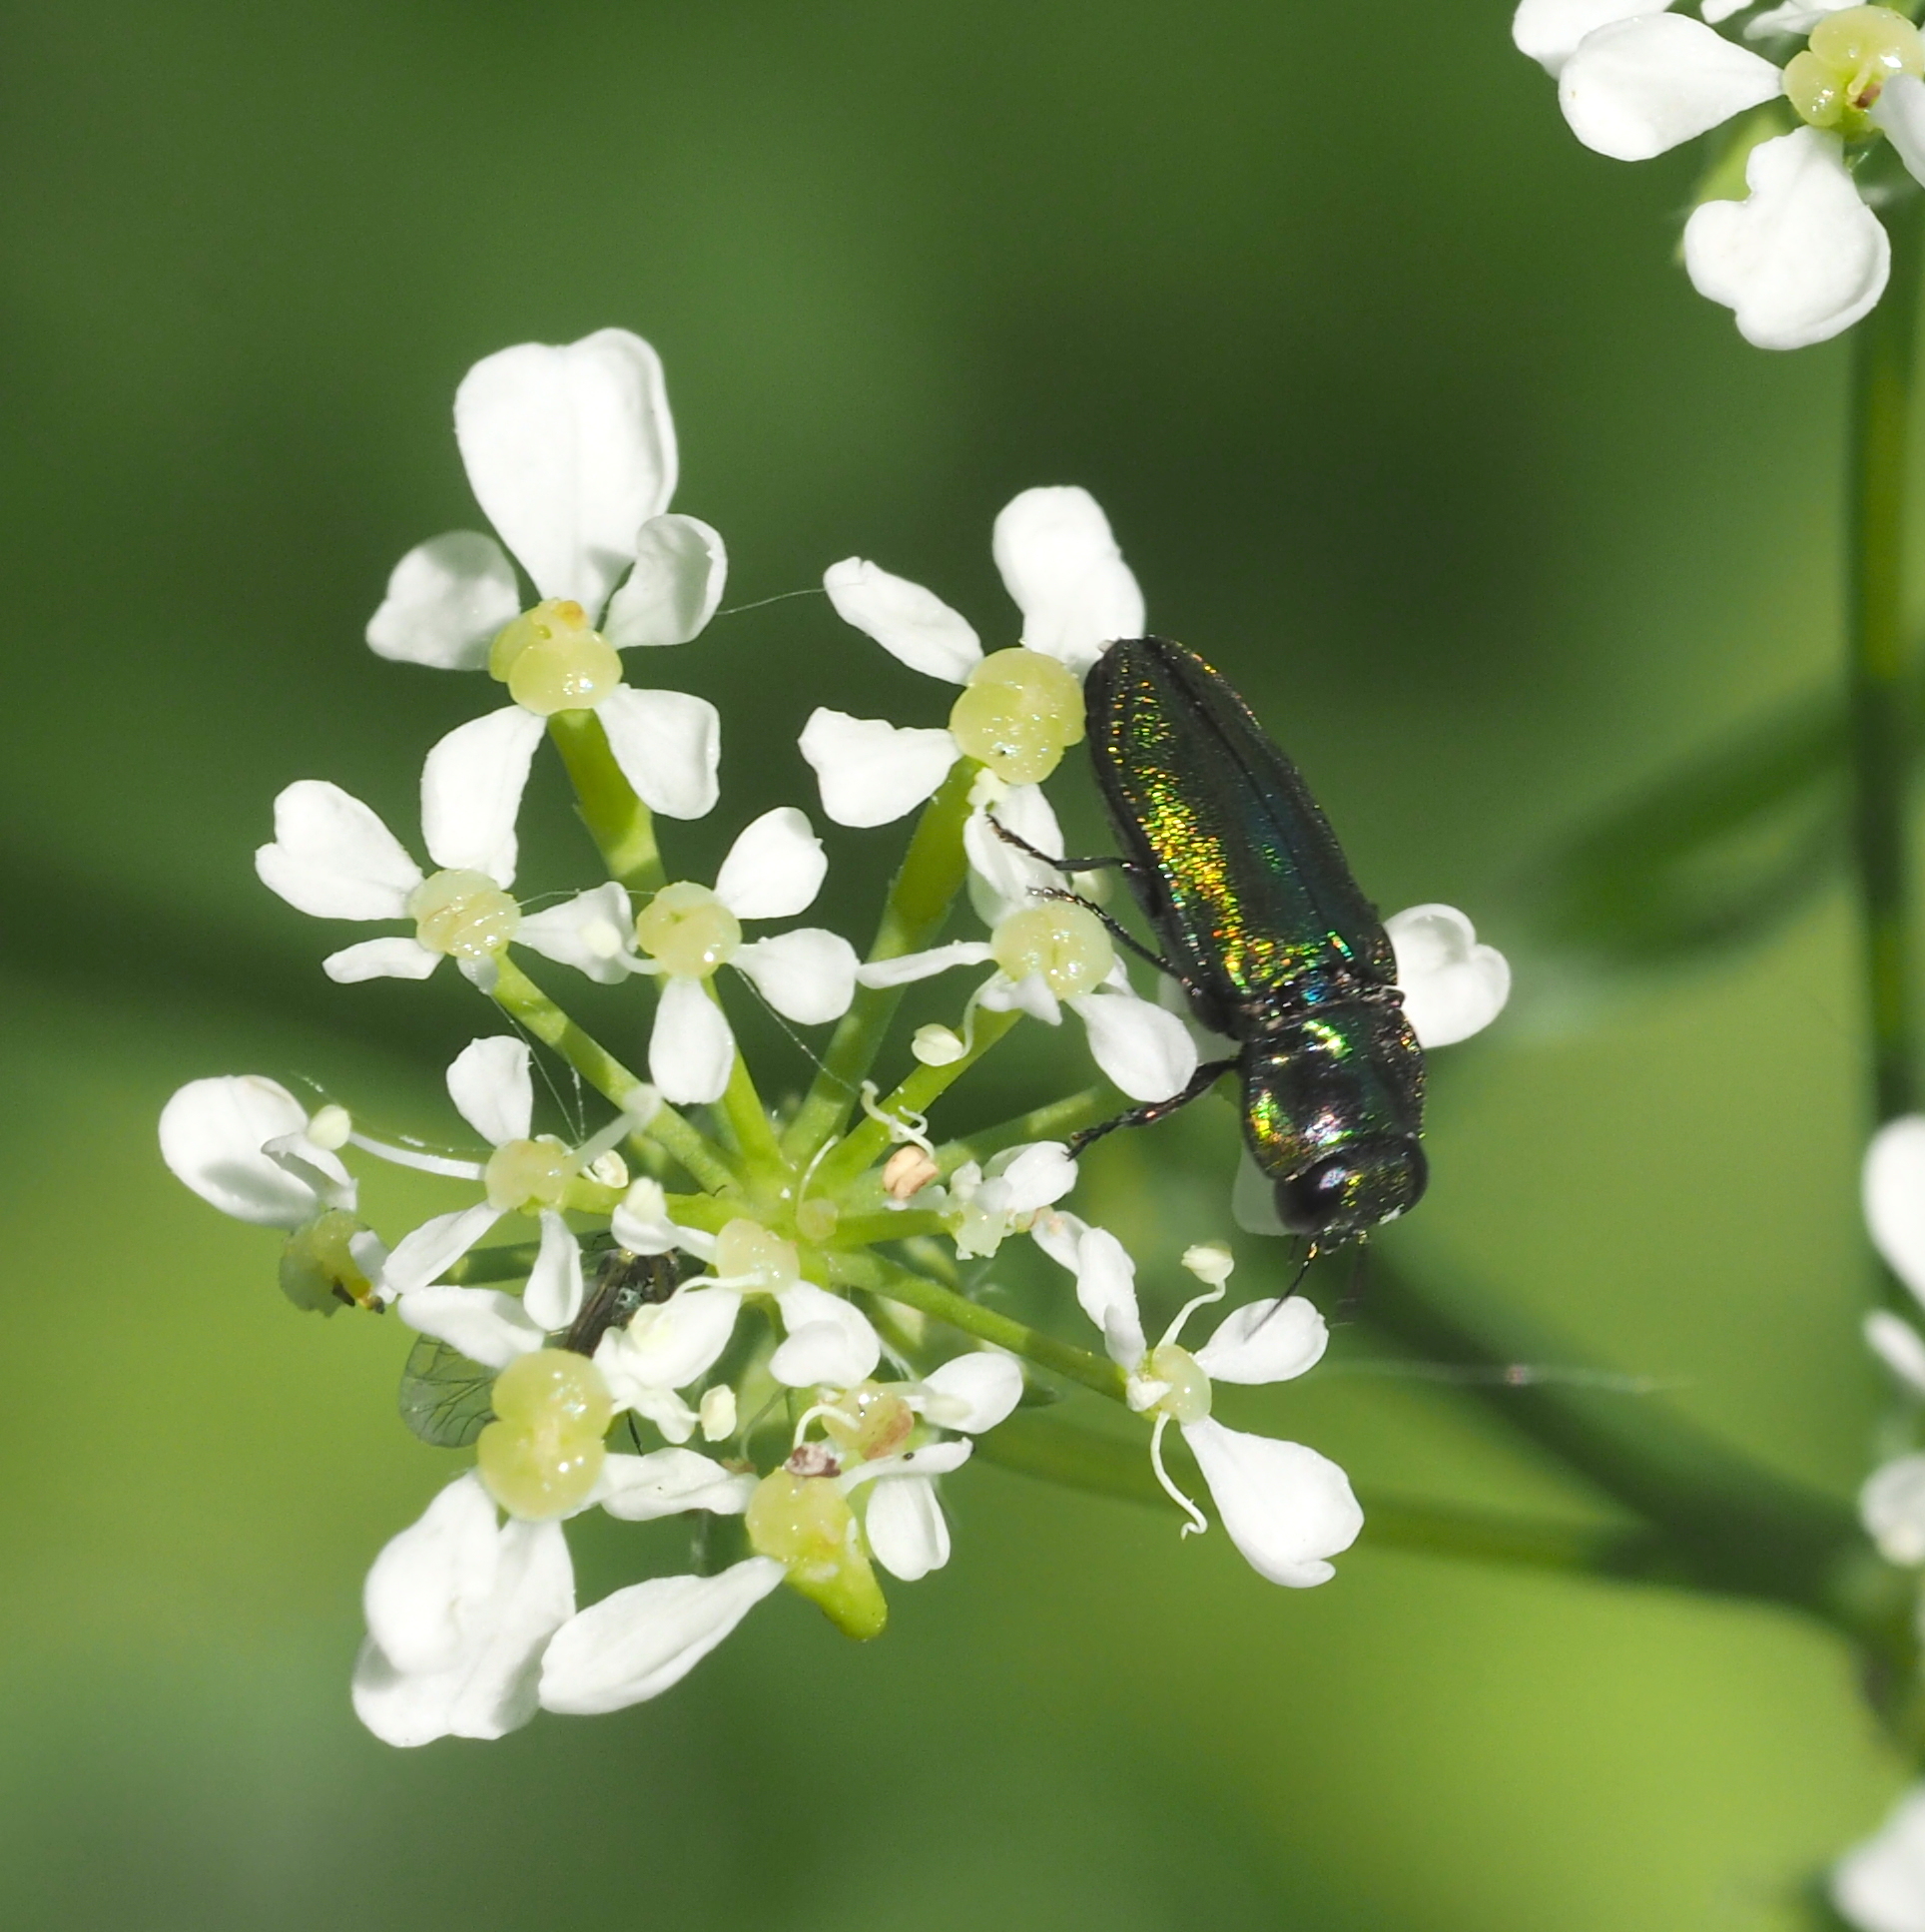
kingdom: Animalia
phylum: Arthropoda
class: Insecta
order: Coleoptera
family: Buprestidae
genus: Anthaxia
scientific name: Anthaxia podolica
